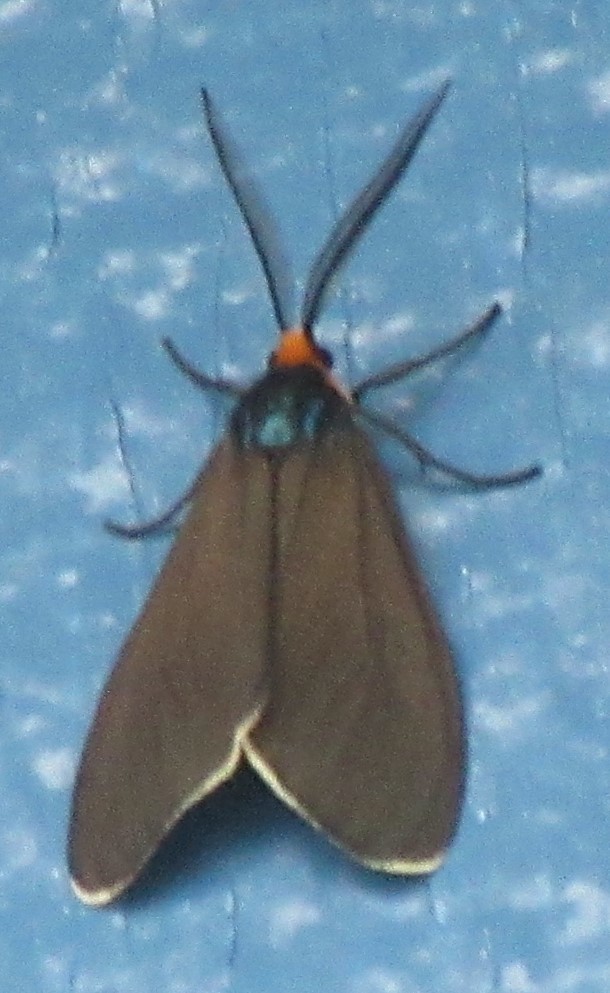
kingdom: Animalia
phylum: Arthropoda
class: Insecta
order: Lepidoptera
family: Erebidae
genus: Ctenucha
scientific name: Ctenucha virginica
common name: Virginia ctenucha moth
